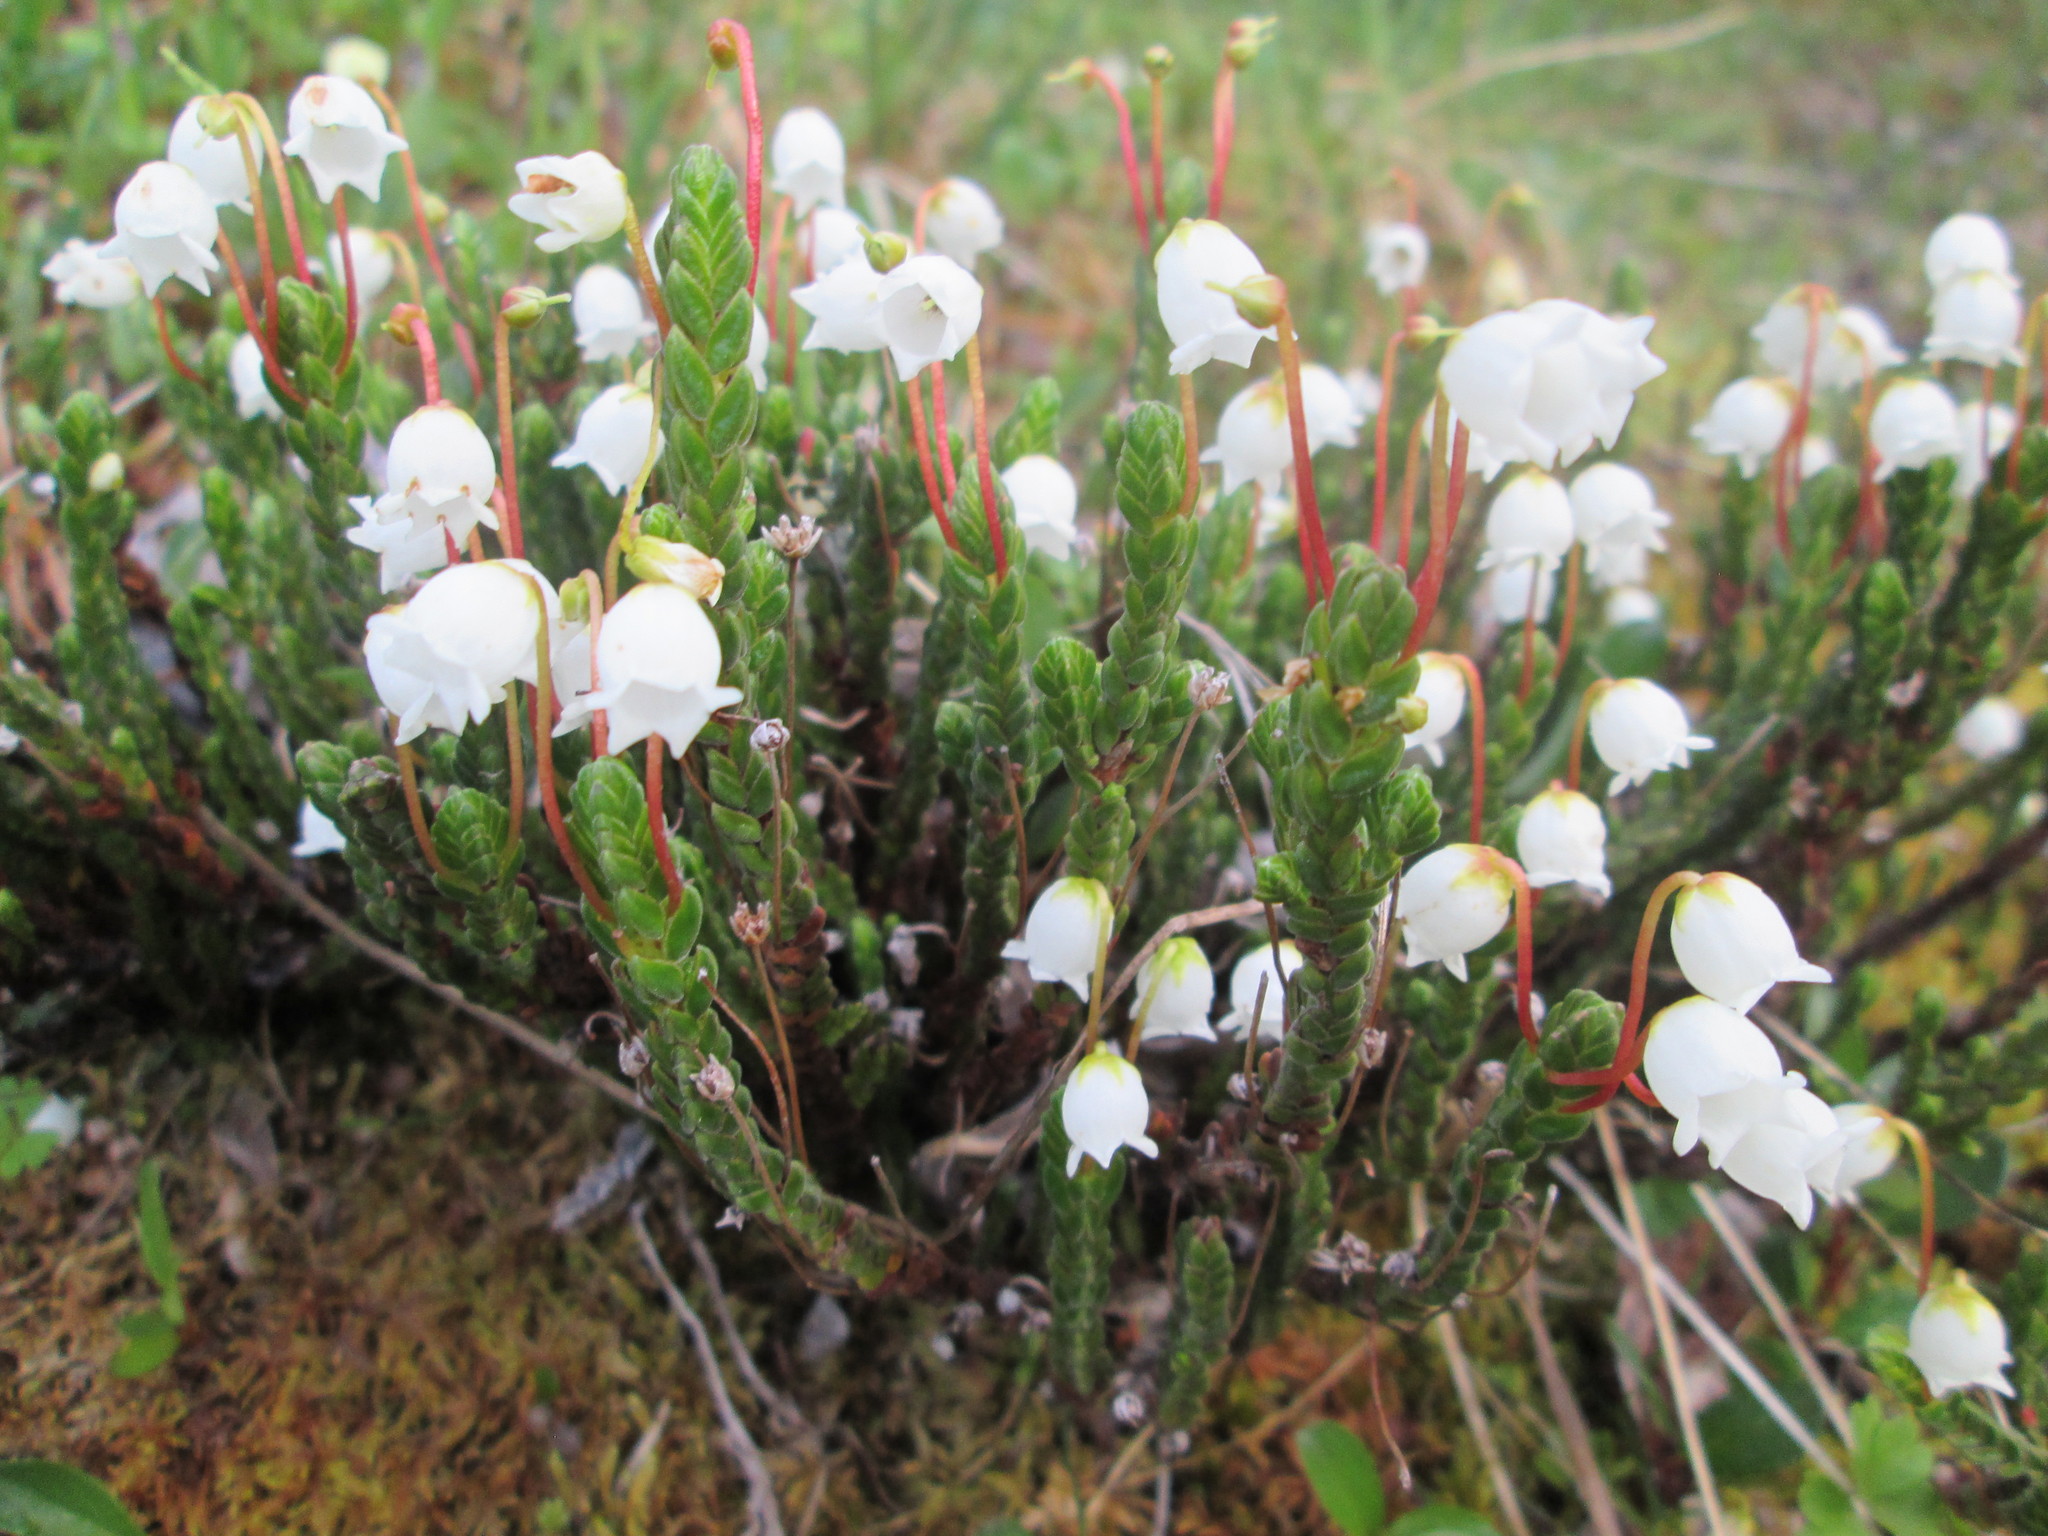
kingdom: Plantae
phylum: Tracheophyta
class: Magnoliopsida
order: Ericales
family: Ericaceae
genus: Cassiope
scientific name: Cassiope tetragona
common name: Arctic bell heather
